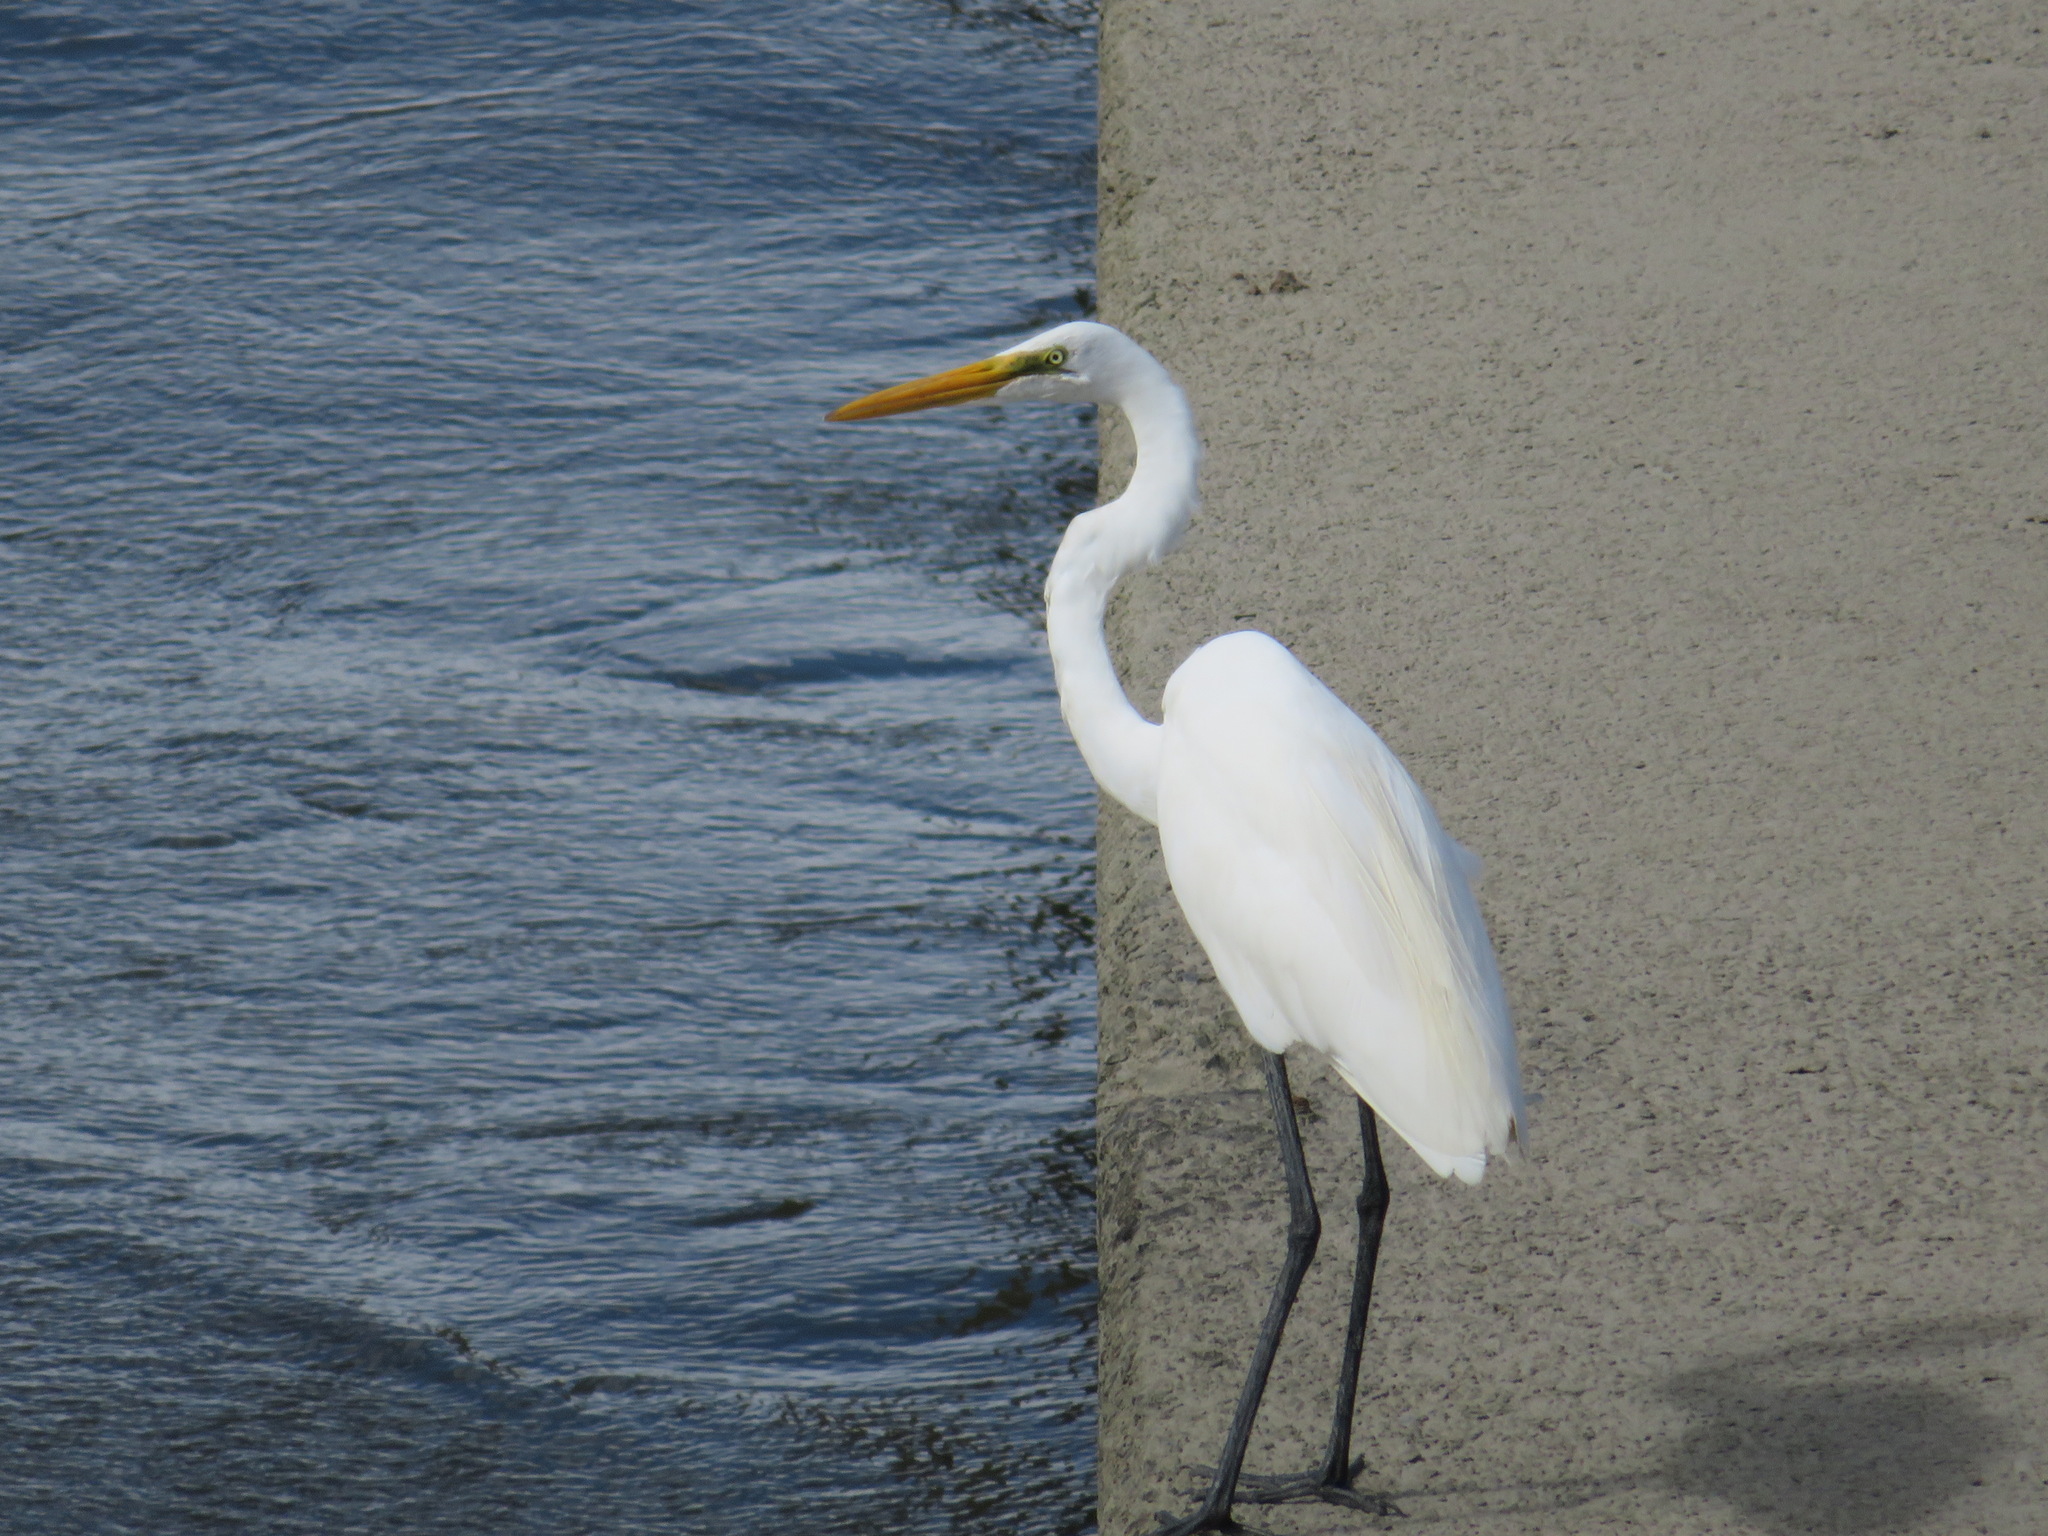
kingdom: Animalia
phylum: Chordata
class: Aves
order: Pelecaniformes
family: Ardeidae
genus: Ardea
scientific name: Ardea alba
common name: Great egret
